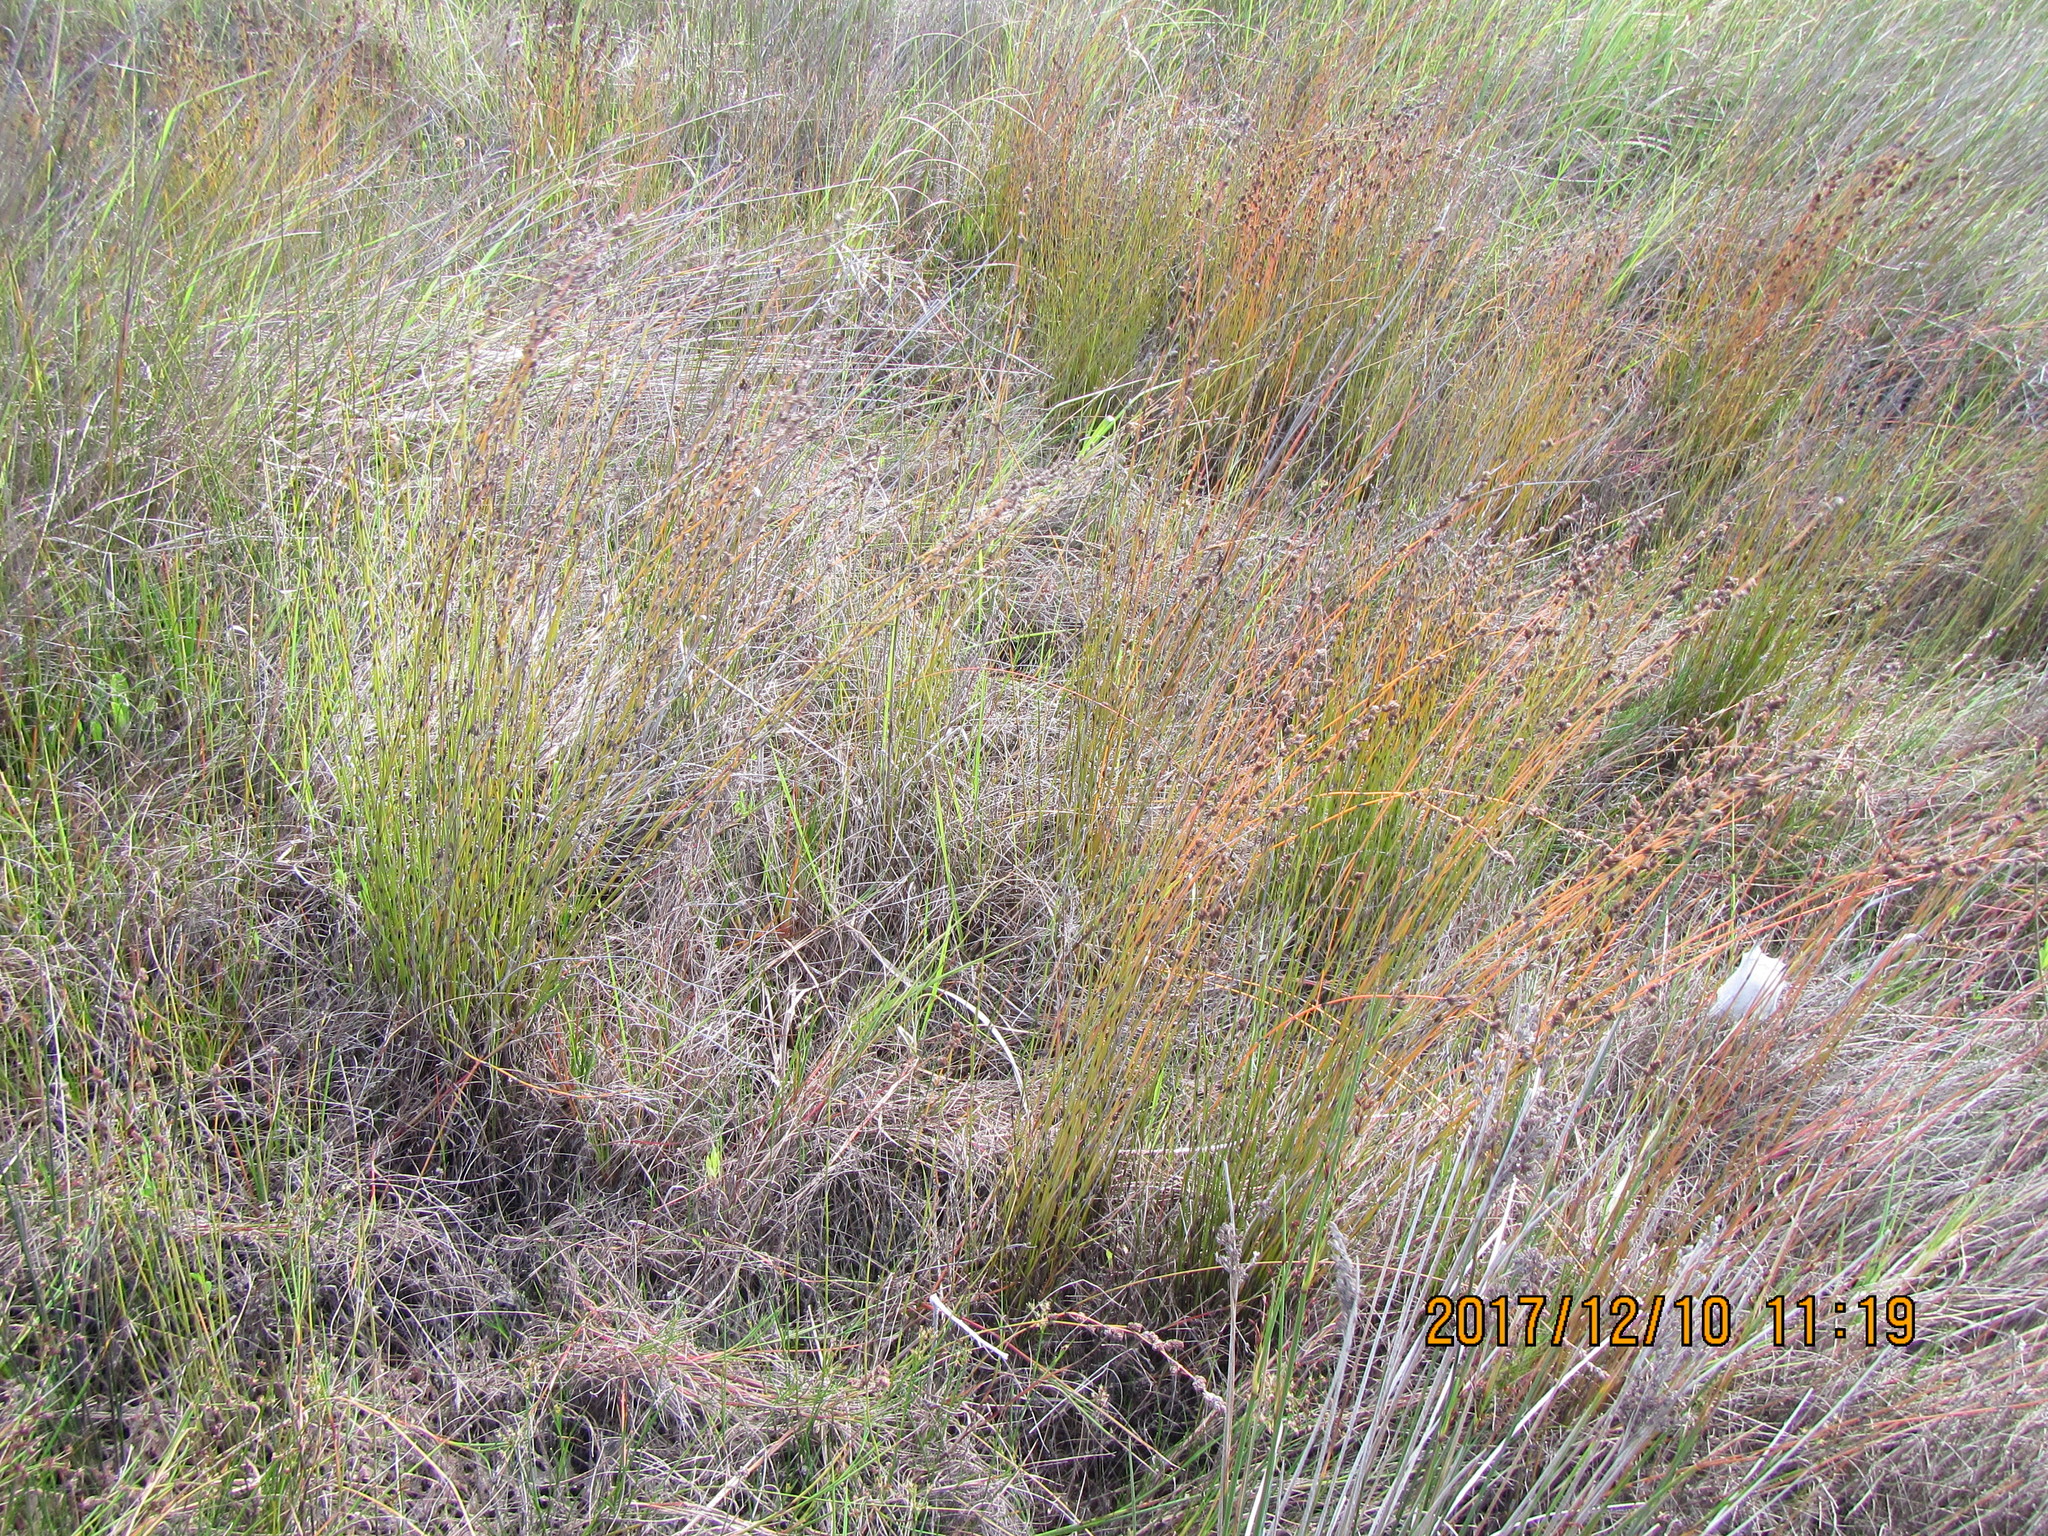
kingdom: Plantae
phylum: Tracheophyta
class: Liliopsida
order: Poales
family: Restionaceae
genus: Apodasmia
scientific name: Apodasmia similis
